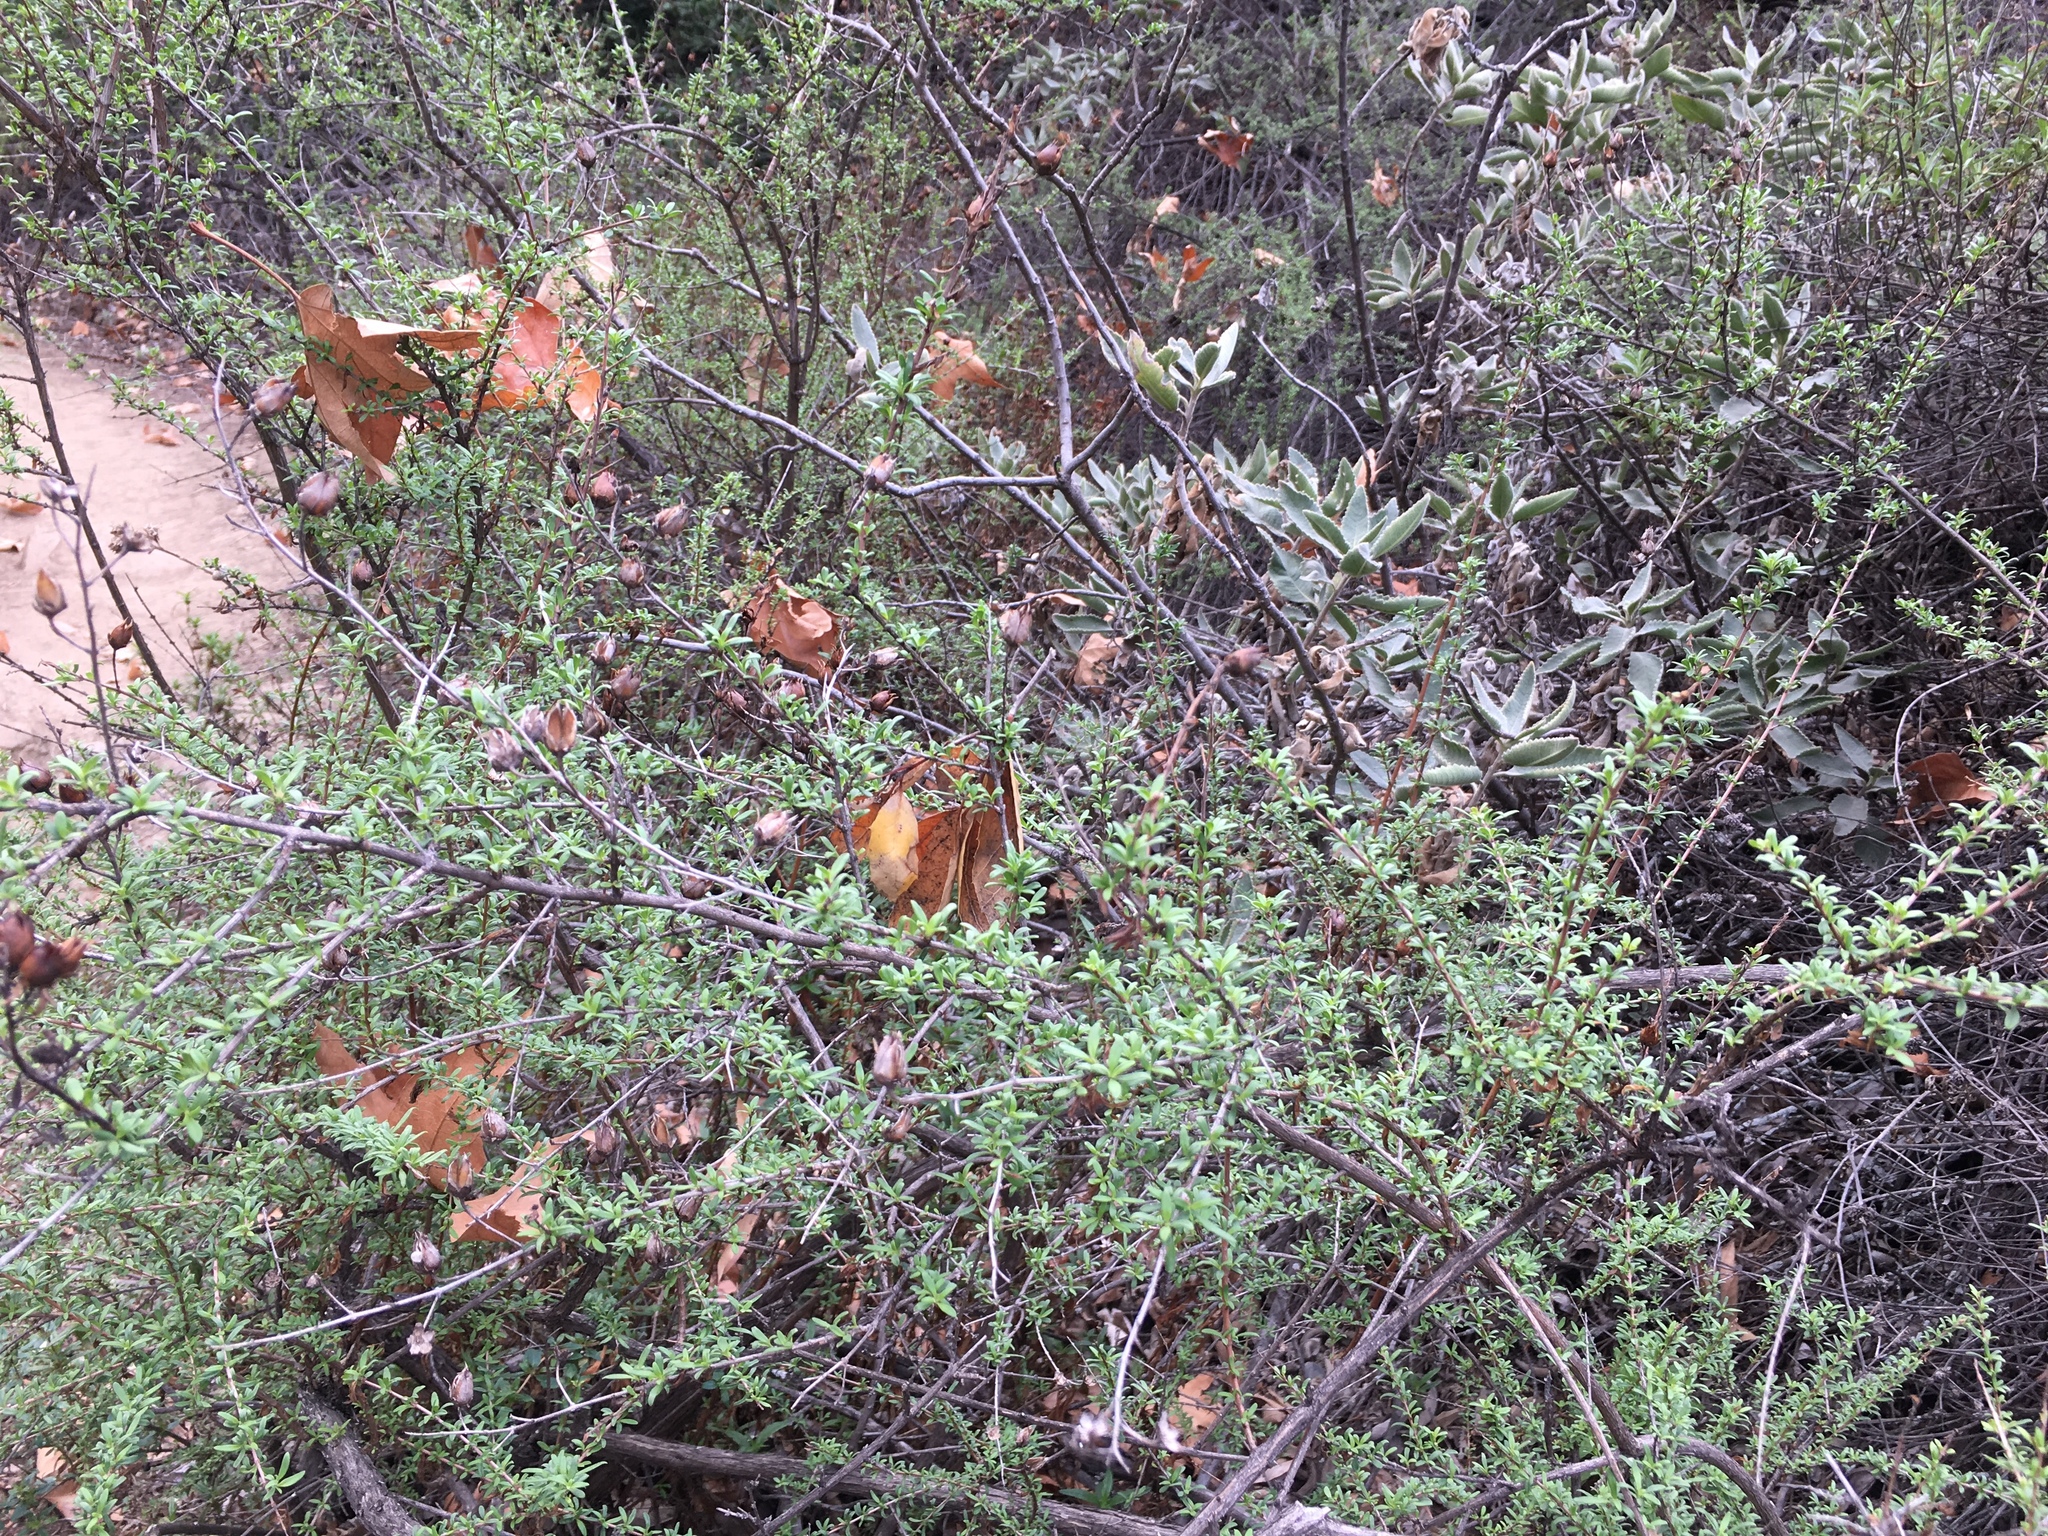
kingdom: Plantae
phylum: Tracheophyta
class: Magnoliopsida
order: Lamiales
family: Plantaginaceae
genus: Keckiella
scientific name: Keckiella antirrhinoides
